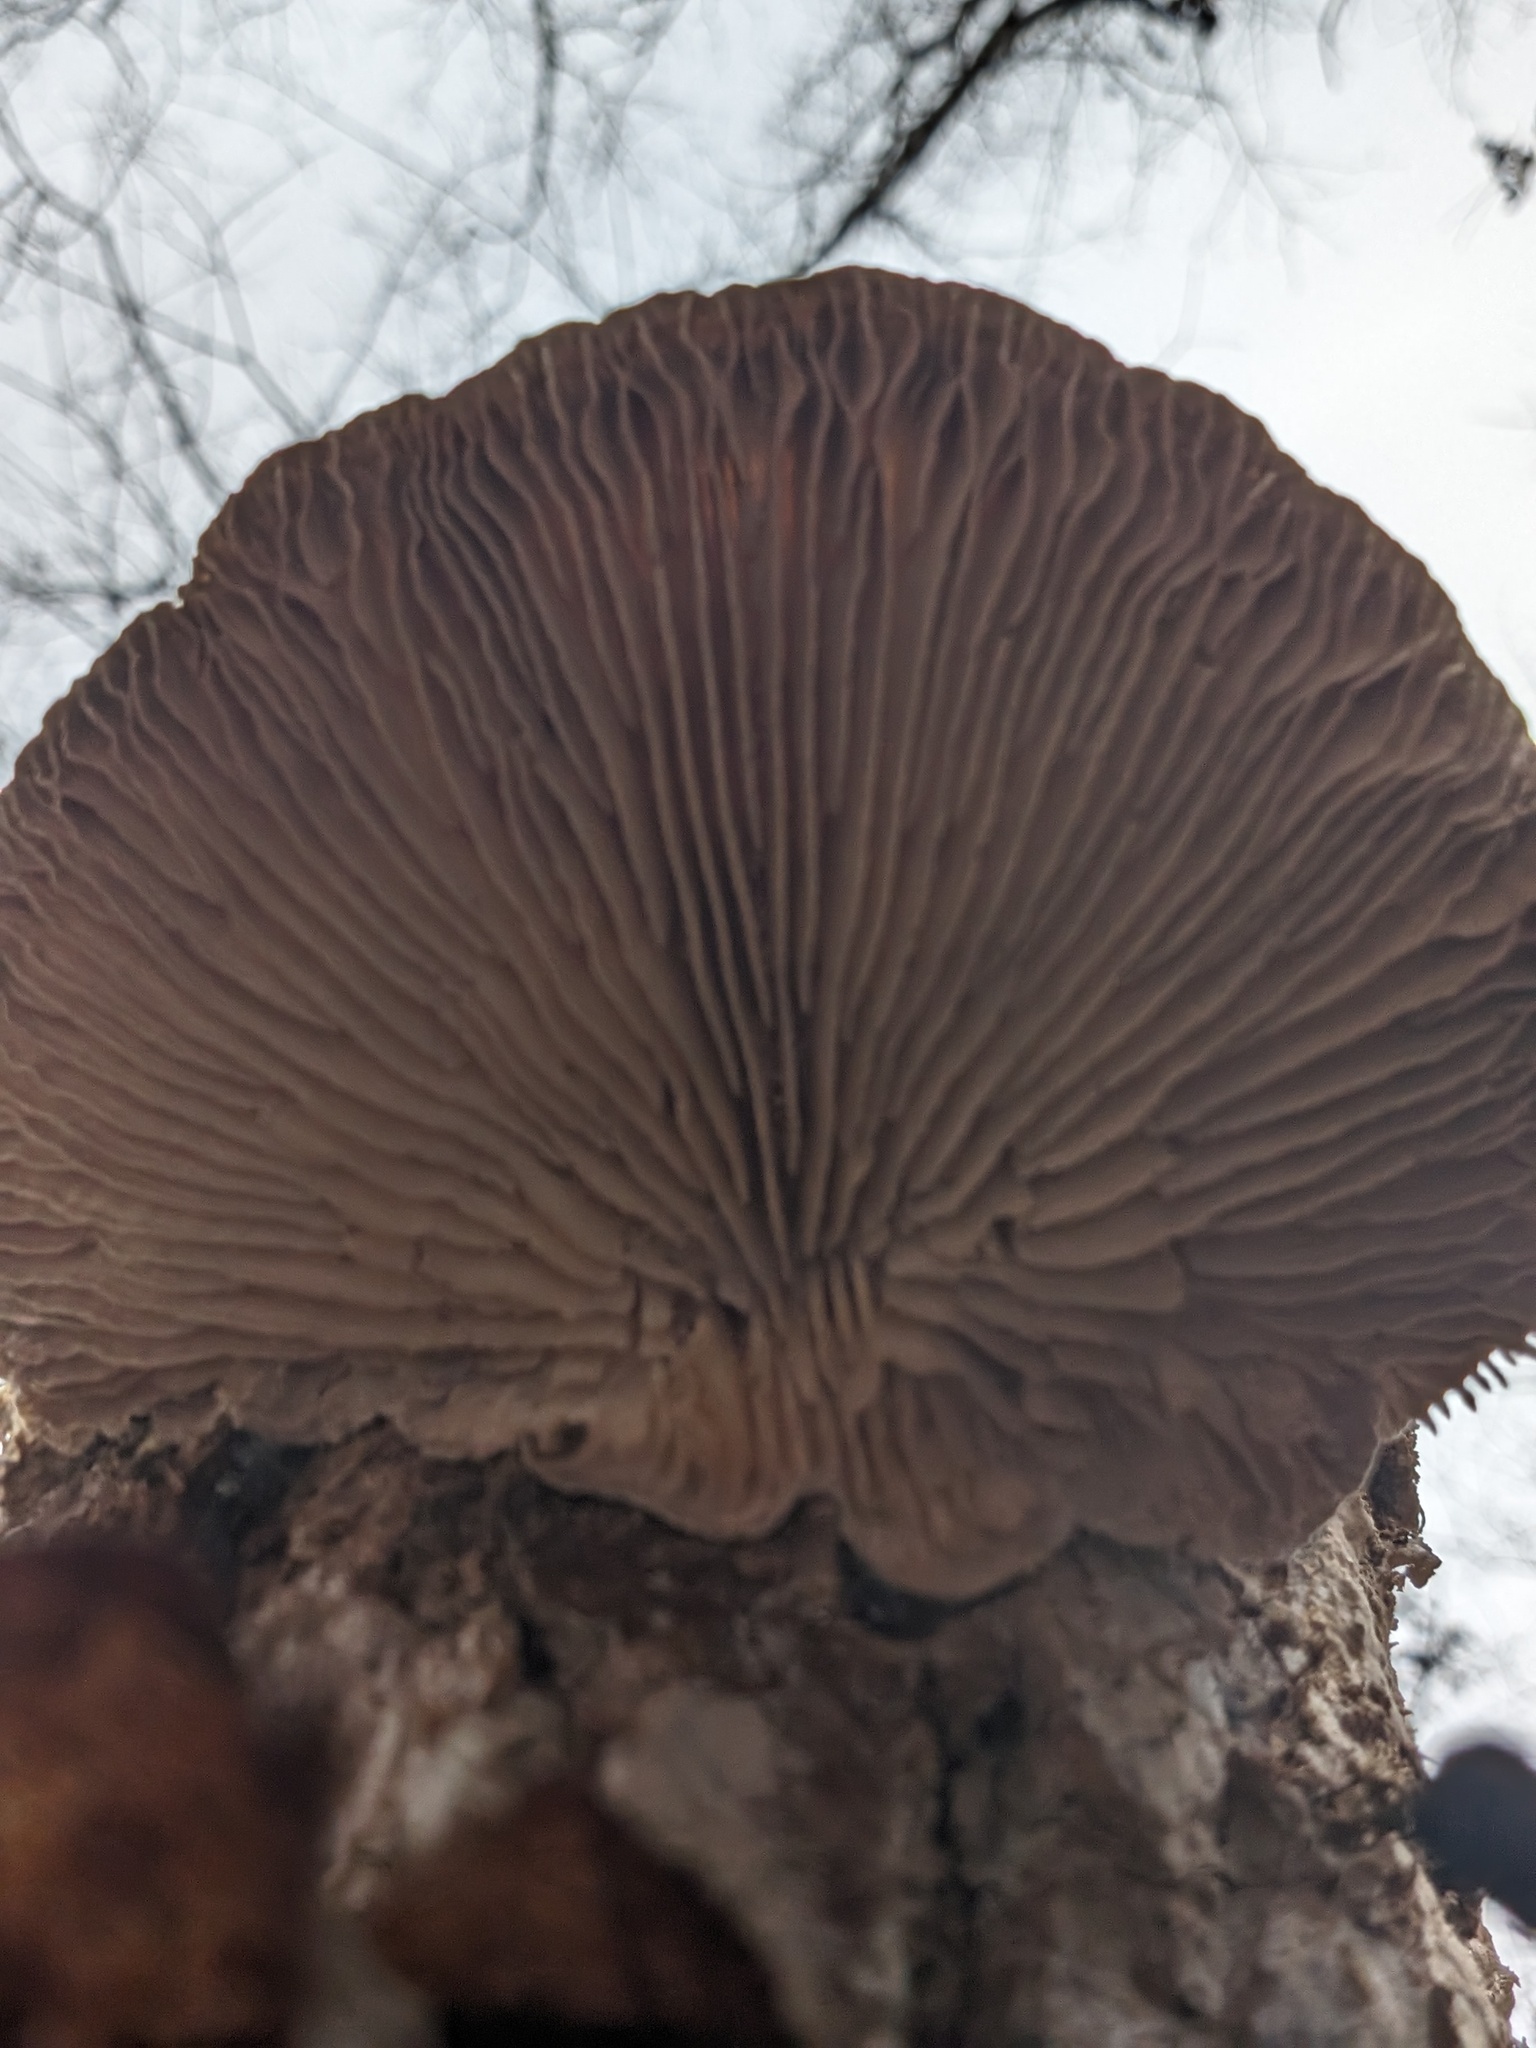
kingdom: Fungi
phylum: Basidiomycota
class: Agaricomycetes
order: Polyporales
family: Polyporaceae
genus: Lenzites
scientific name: Lenzites betulinus
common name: Birch mazegill
